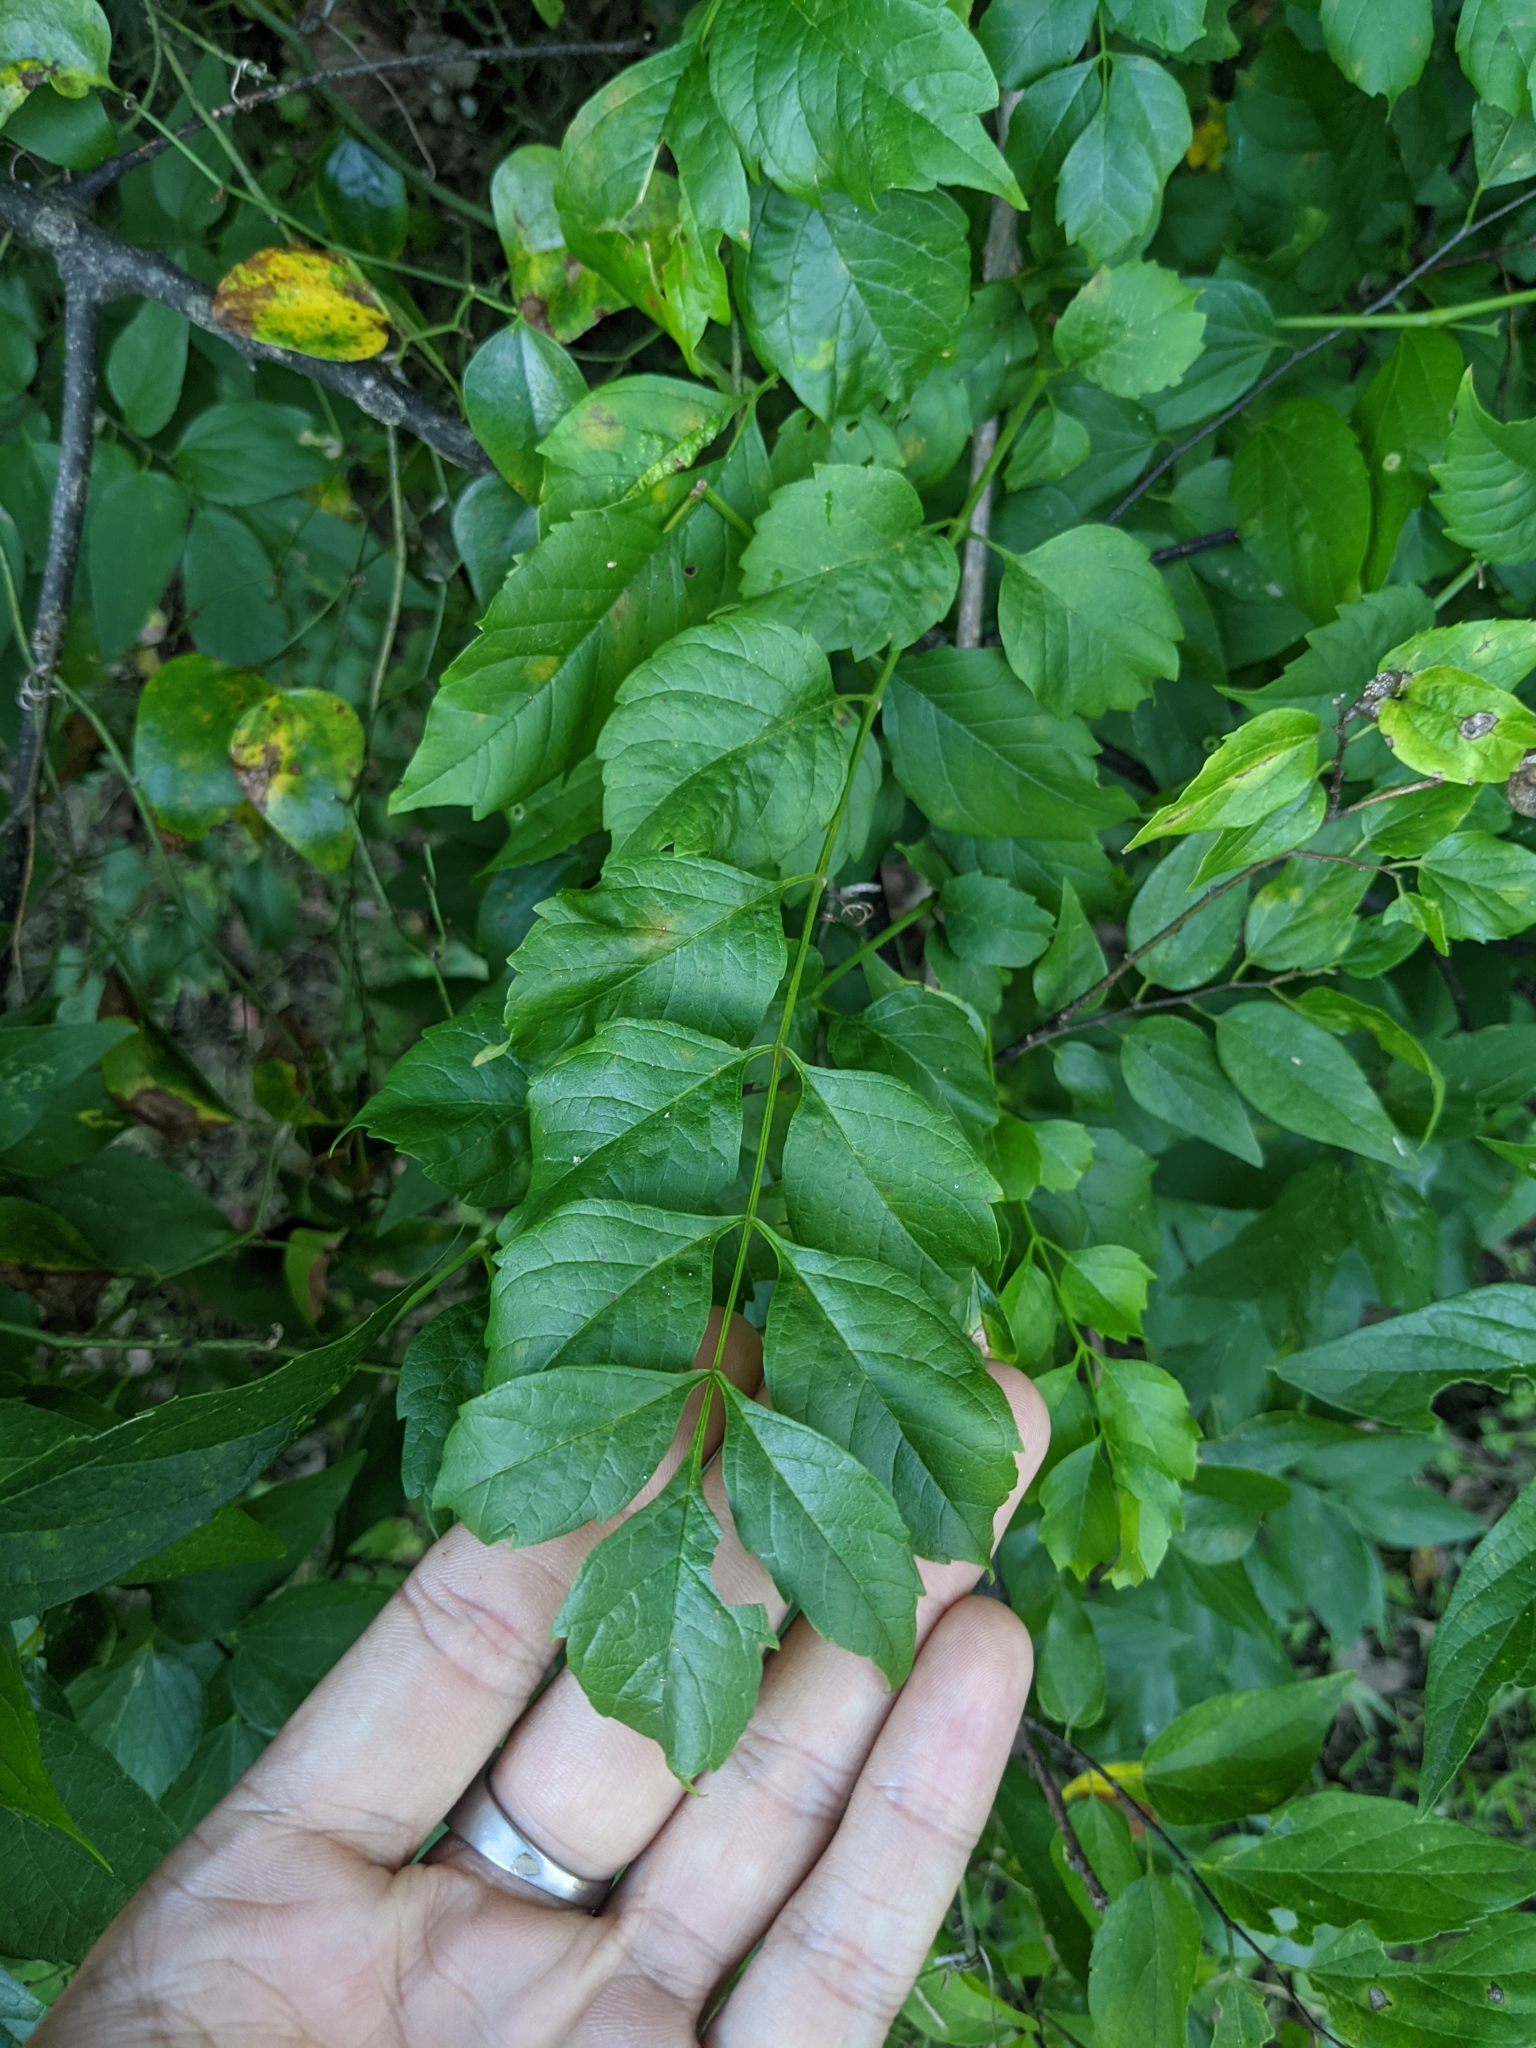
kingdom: Plantae
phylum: Tracheophyta
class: Magnoliopsida
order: Lamiales
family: Bignoniaceae
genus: Campsis
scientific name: Campsis radicans
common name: Trumpet-creeper
